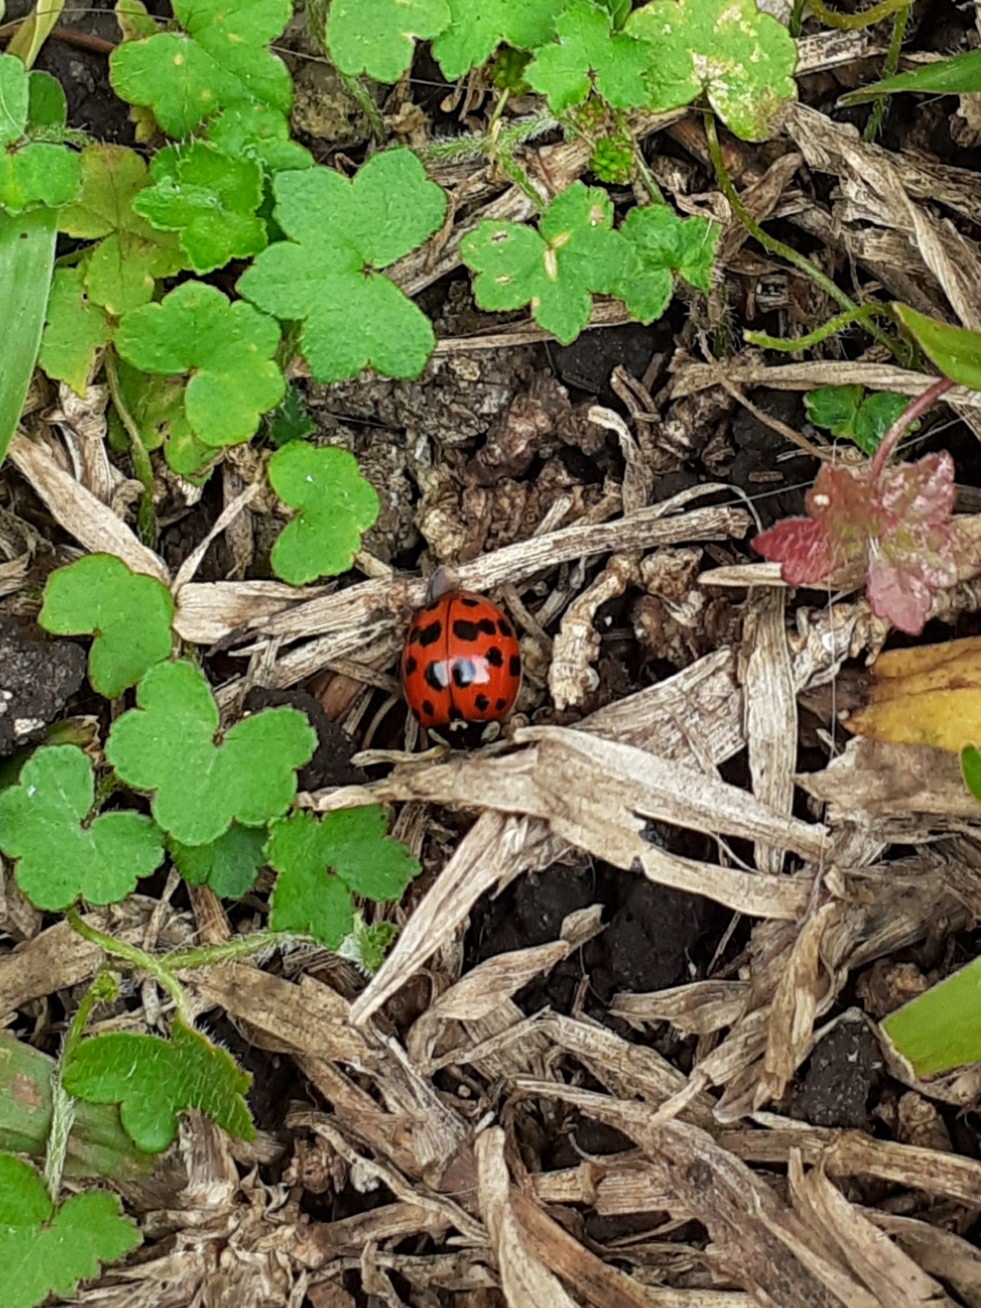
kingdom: Animalia
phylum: Arthropoda
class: Insecta
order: Coleoptera
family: Coccinellidae
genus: Harmonia
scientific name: Harmonia axyridis
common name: Harlequin ladybird
